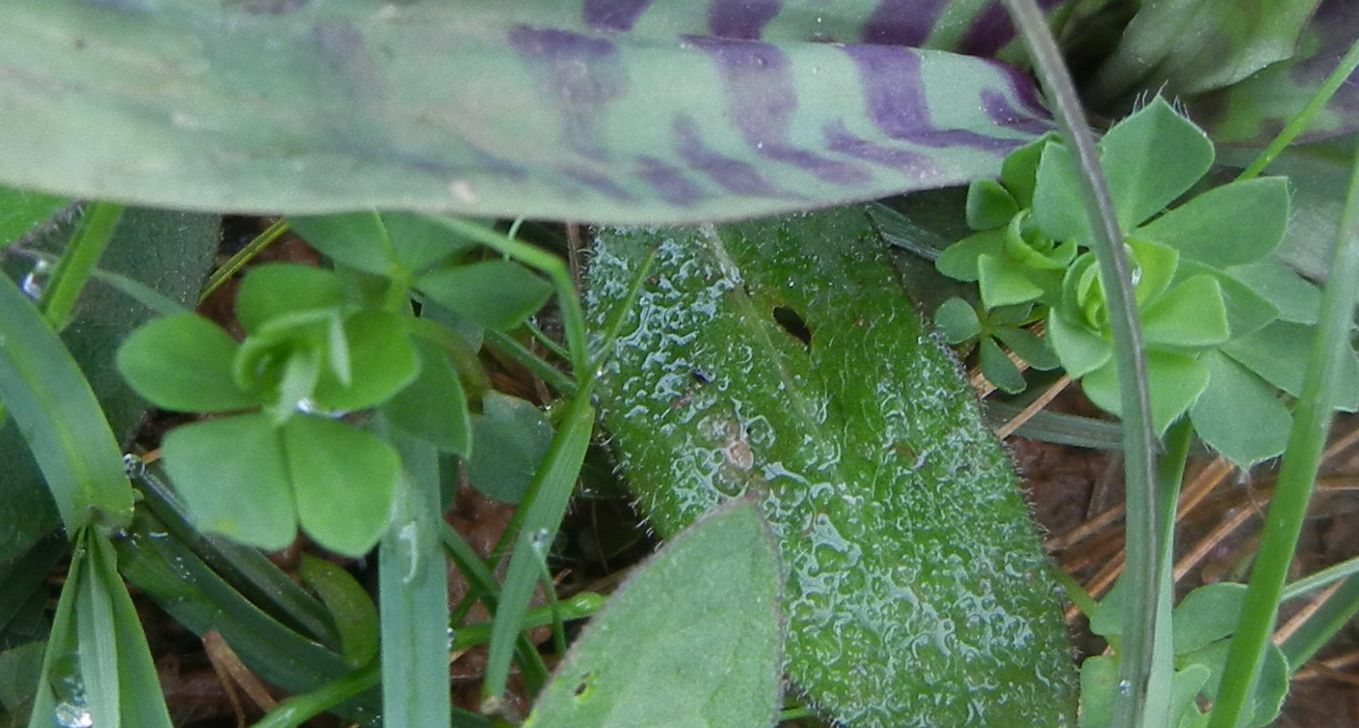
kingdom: Plantae
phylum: Tracheophyta
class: Magnoliopsida
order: Fabales
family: Fabaceae
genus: Lotus
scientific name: Lotus corniculatus
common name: Common bird's-foot-trefoil
